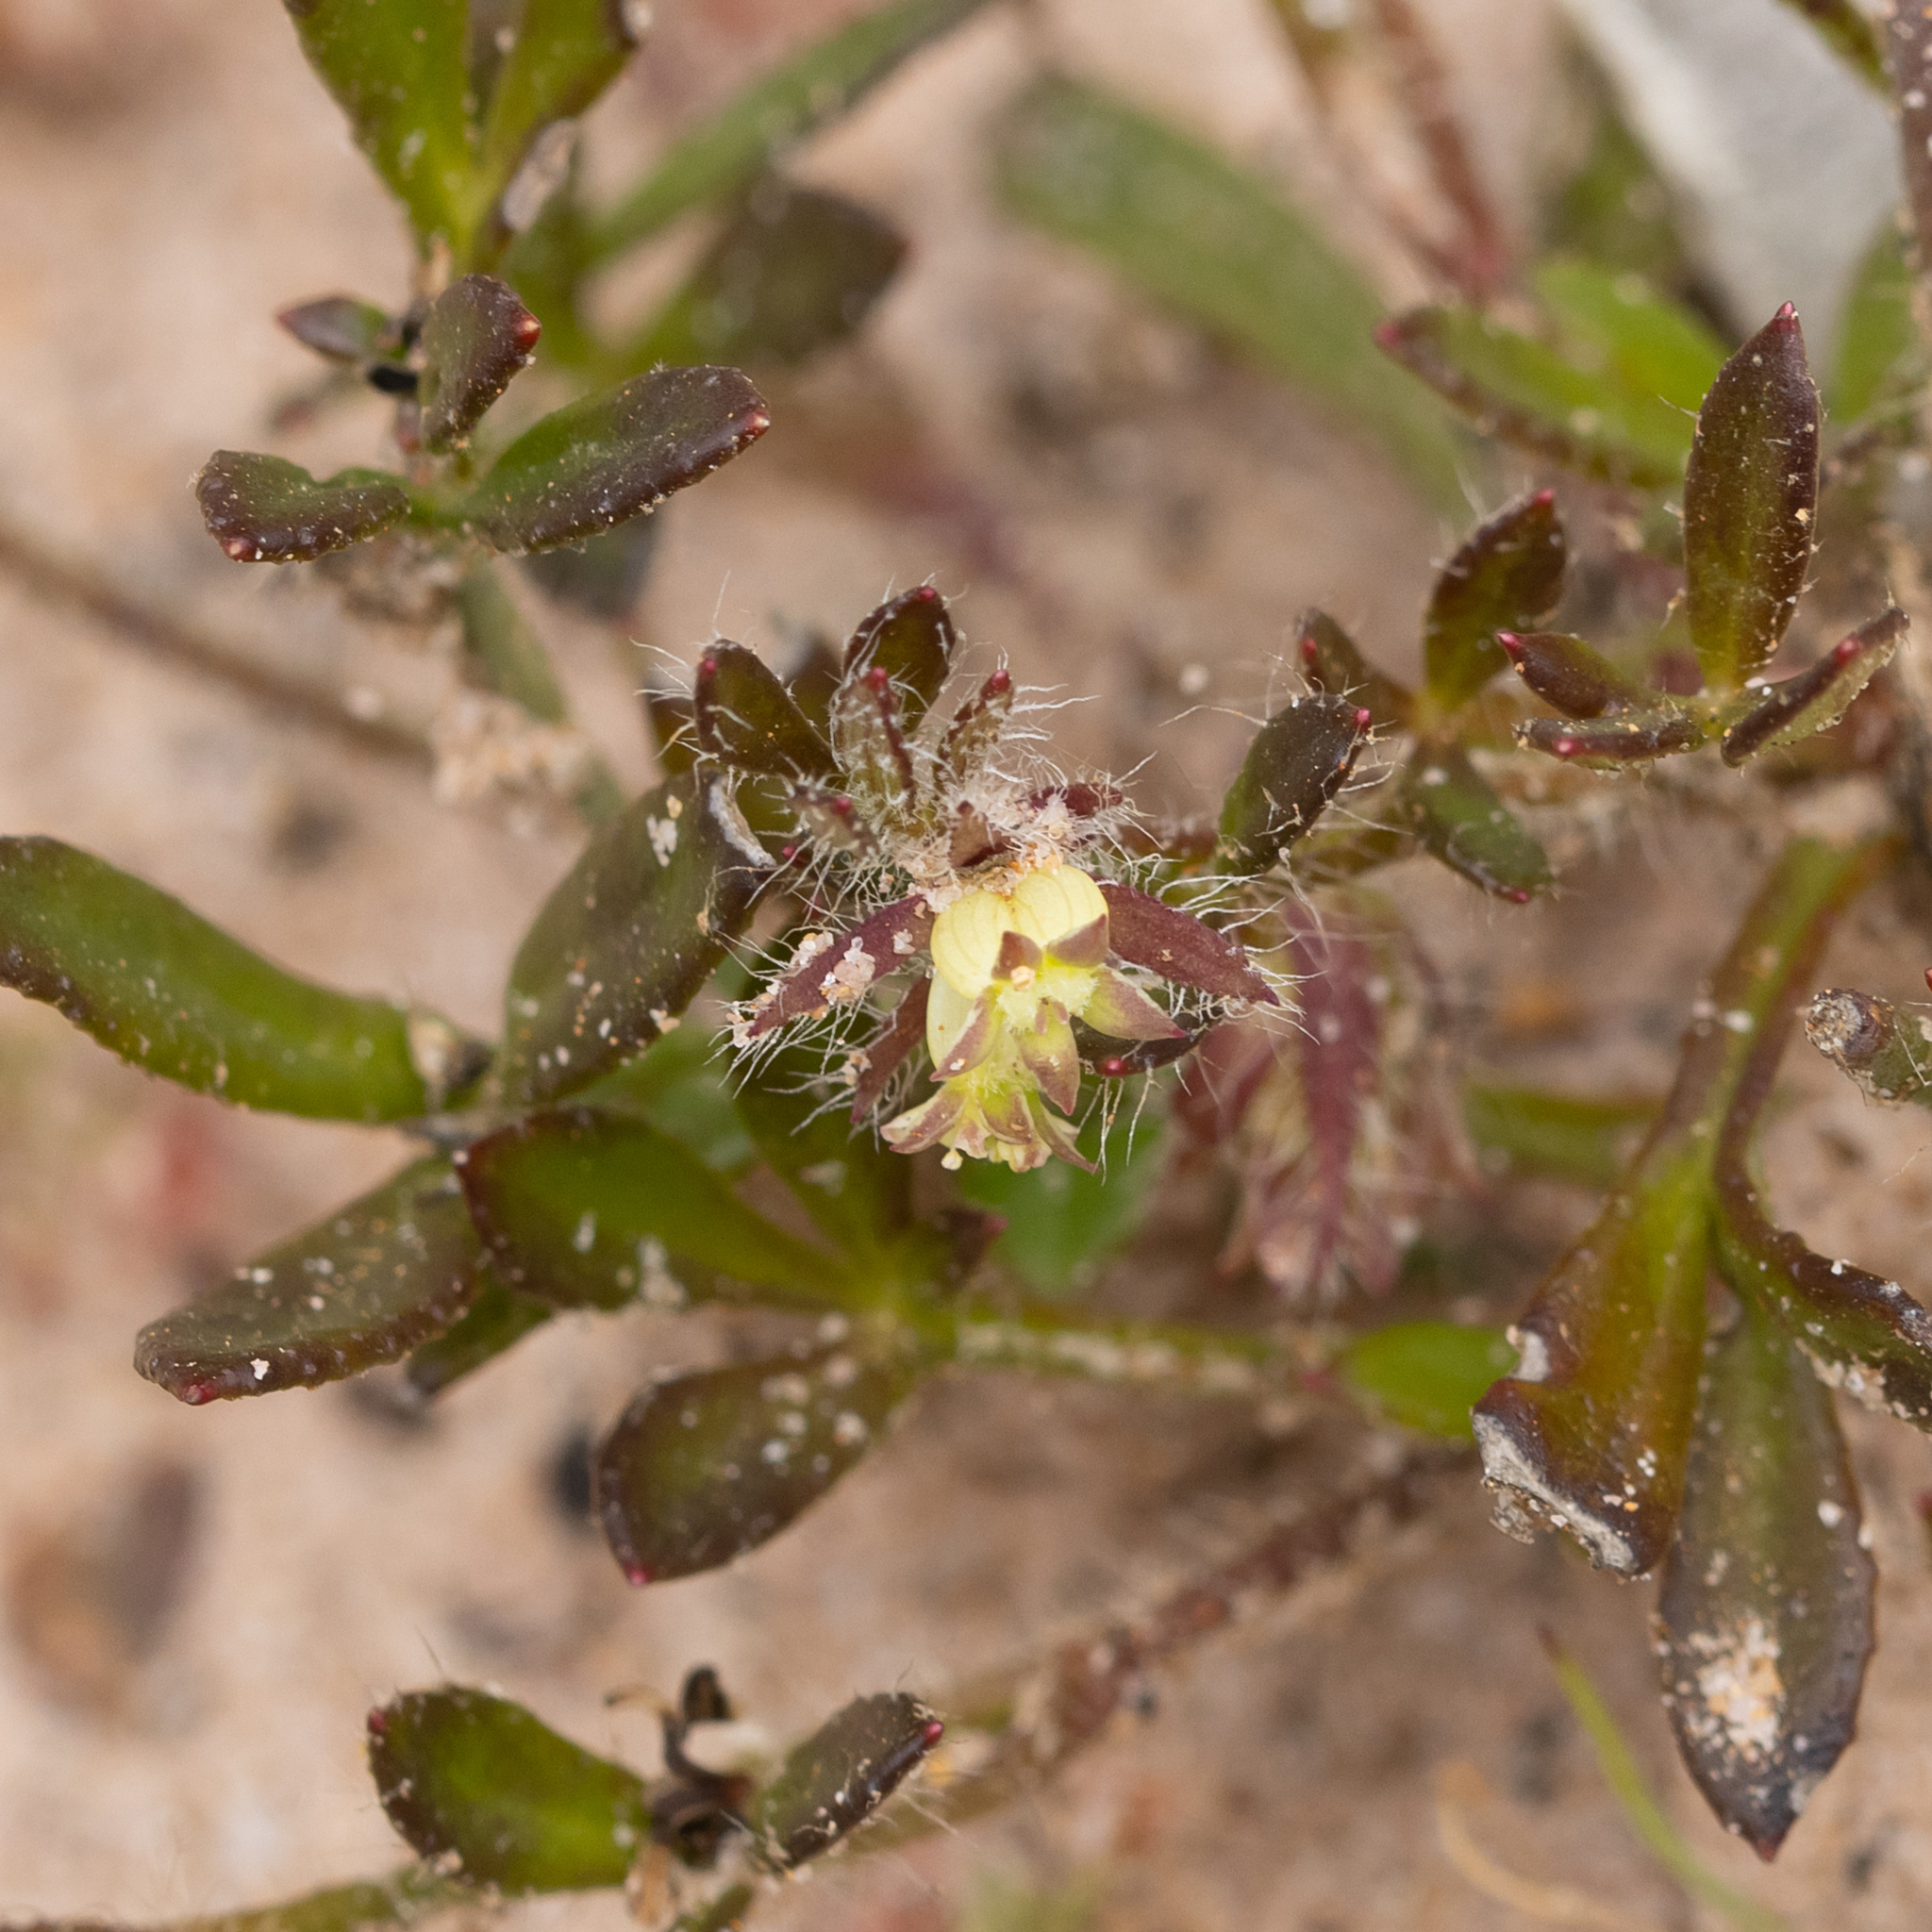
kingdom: Plantae
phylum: Tracheophyta
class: Magnoliopsida
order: Apiales
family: Apiaceae
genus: Xanthosia
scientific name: Xanthosia huegelii
